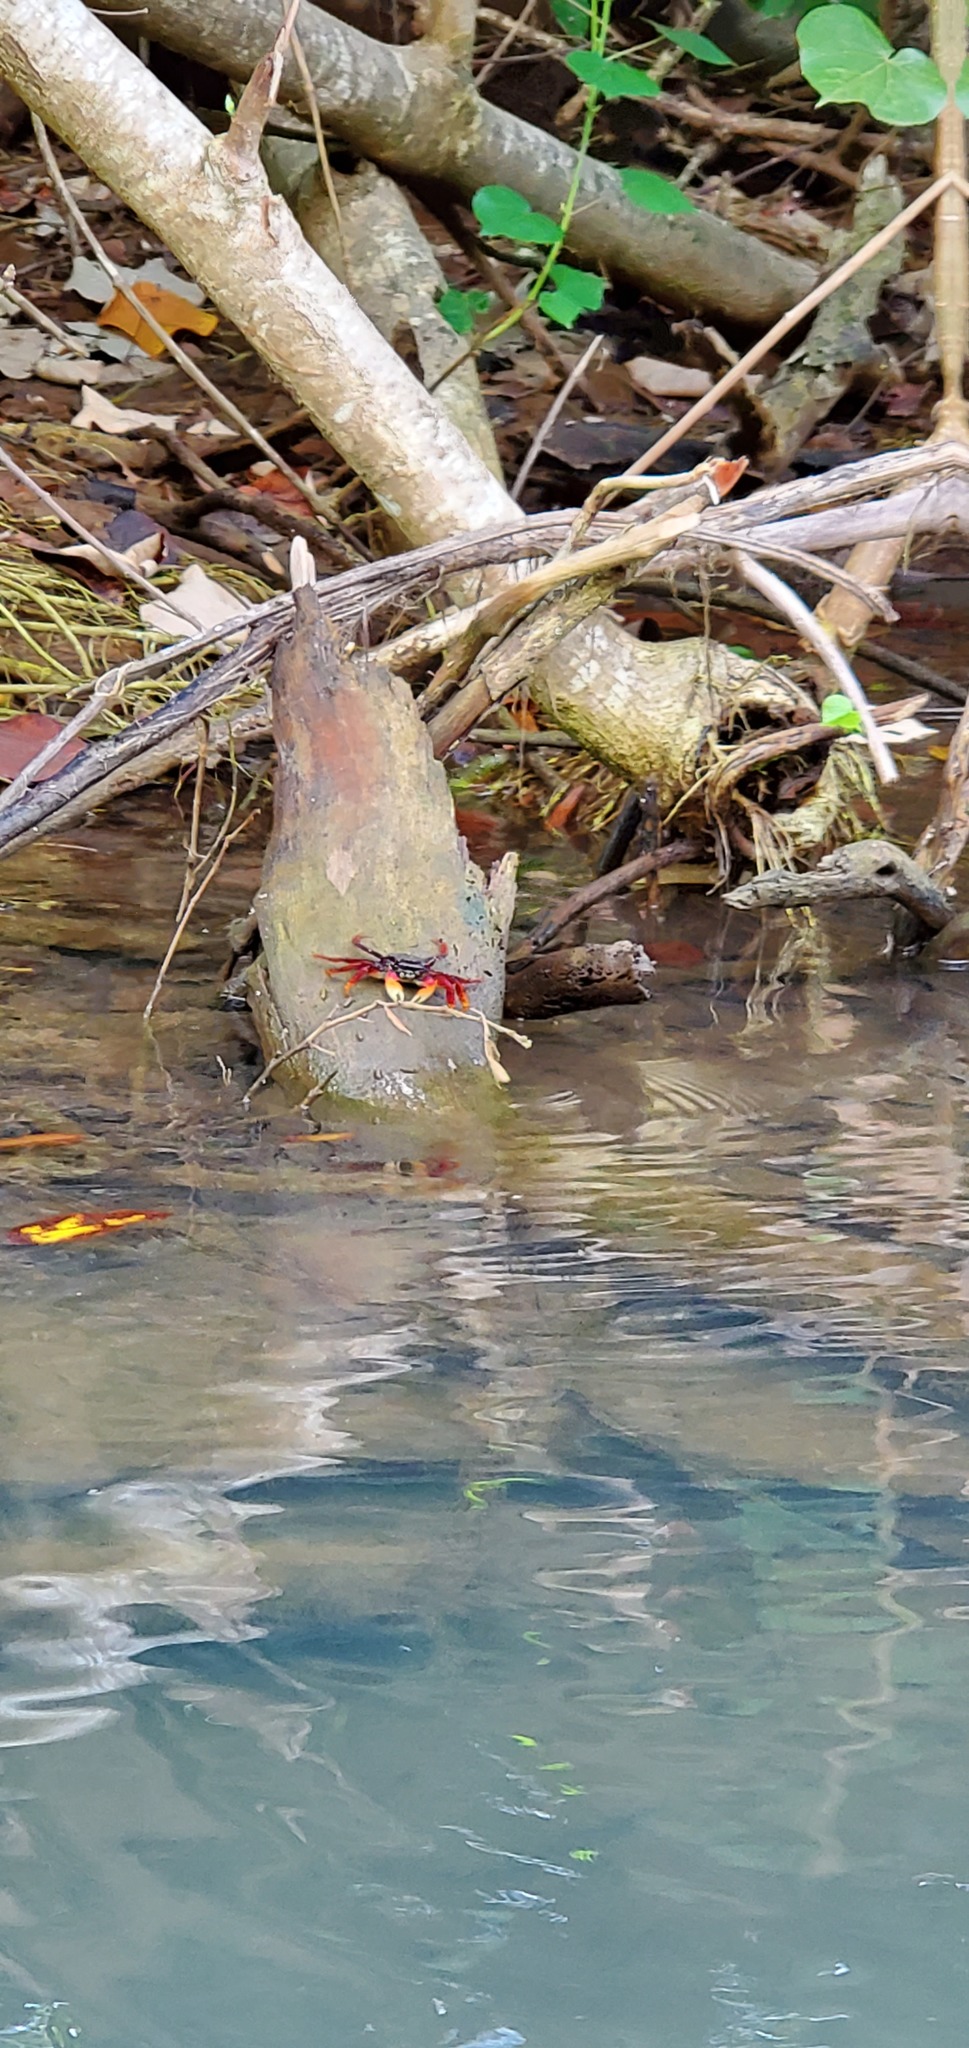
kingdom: Animalia
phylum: Arthropoda
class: Malacostraca
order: Decapoda
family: Grapsidae
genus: Goniopsis
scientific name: Goniopsis cruentata
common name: Mangrove crab
